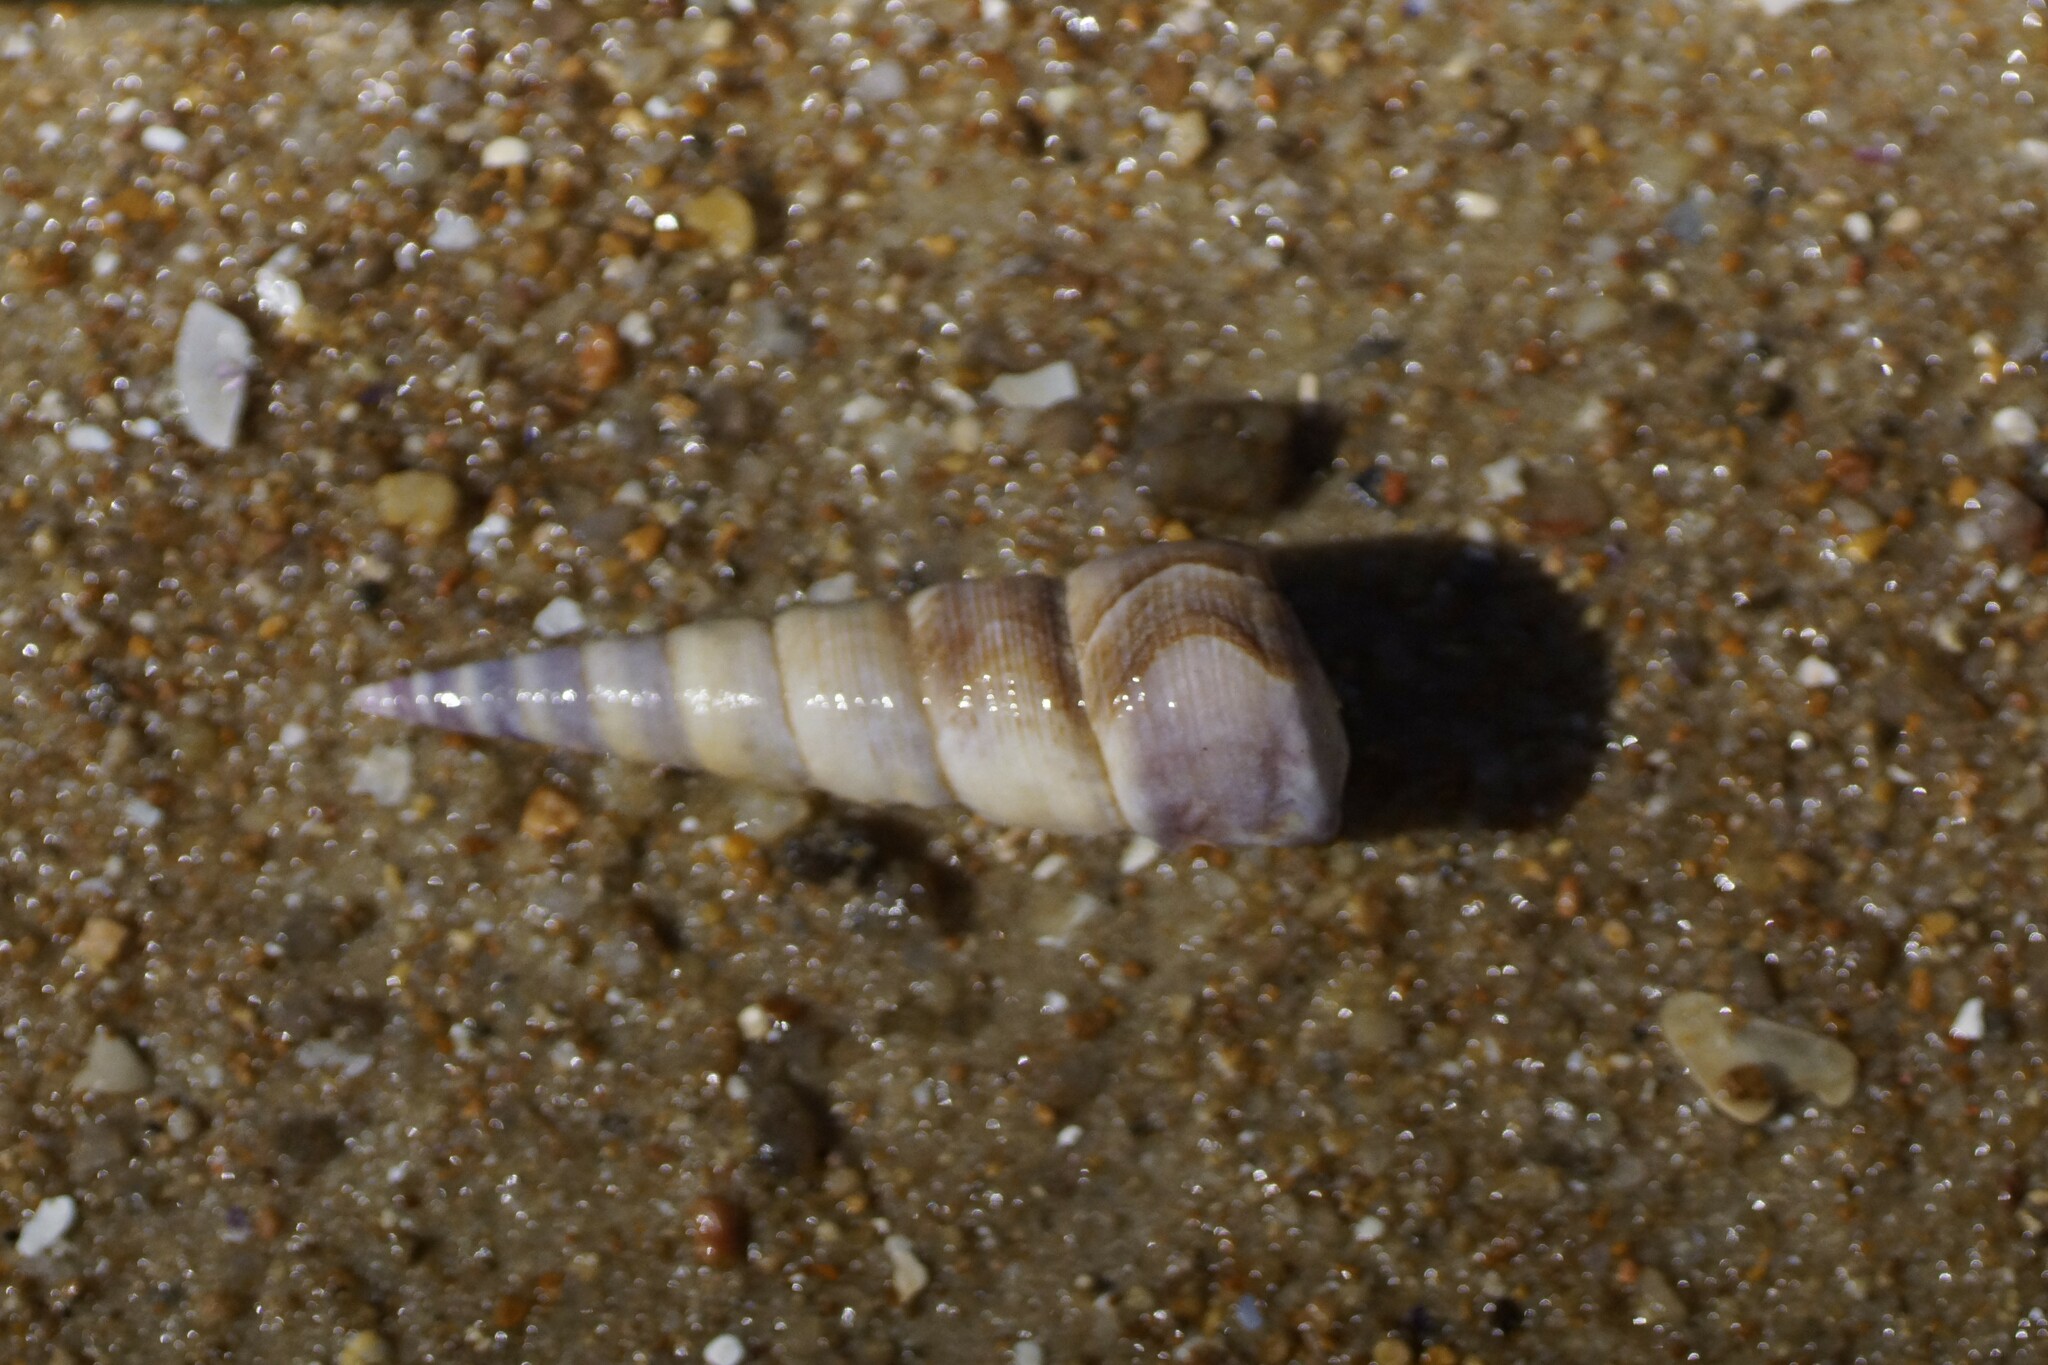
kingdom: Animalia
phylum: Mollusca
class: Gastropoda
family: Turritellidae
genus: Maoricolpus
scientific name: Maoricolpus roseus
